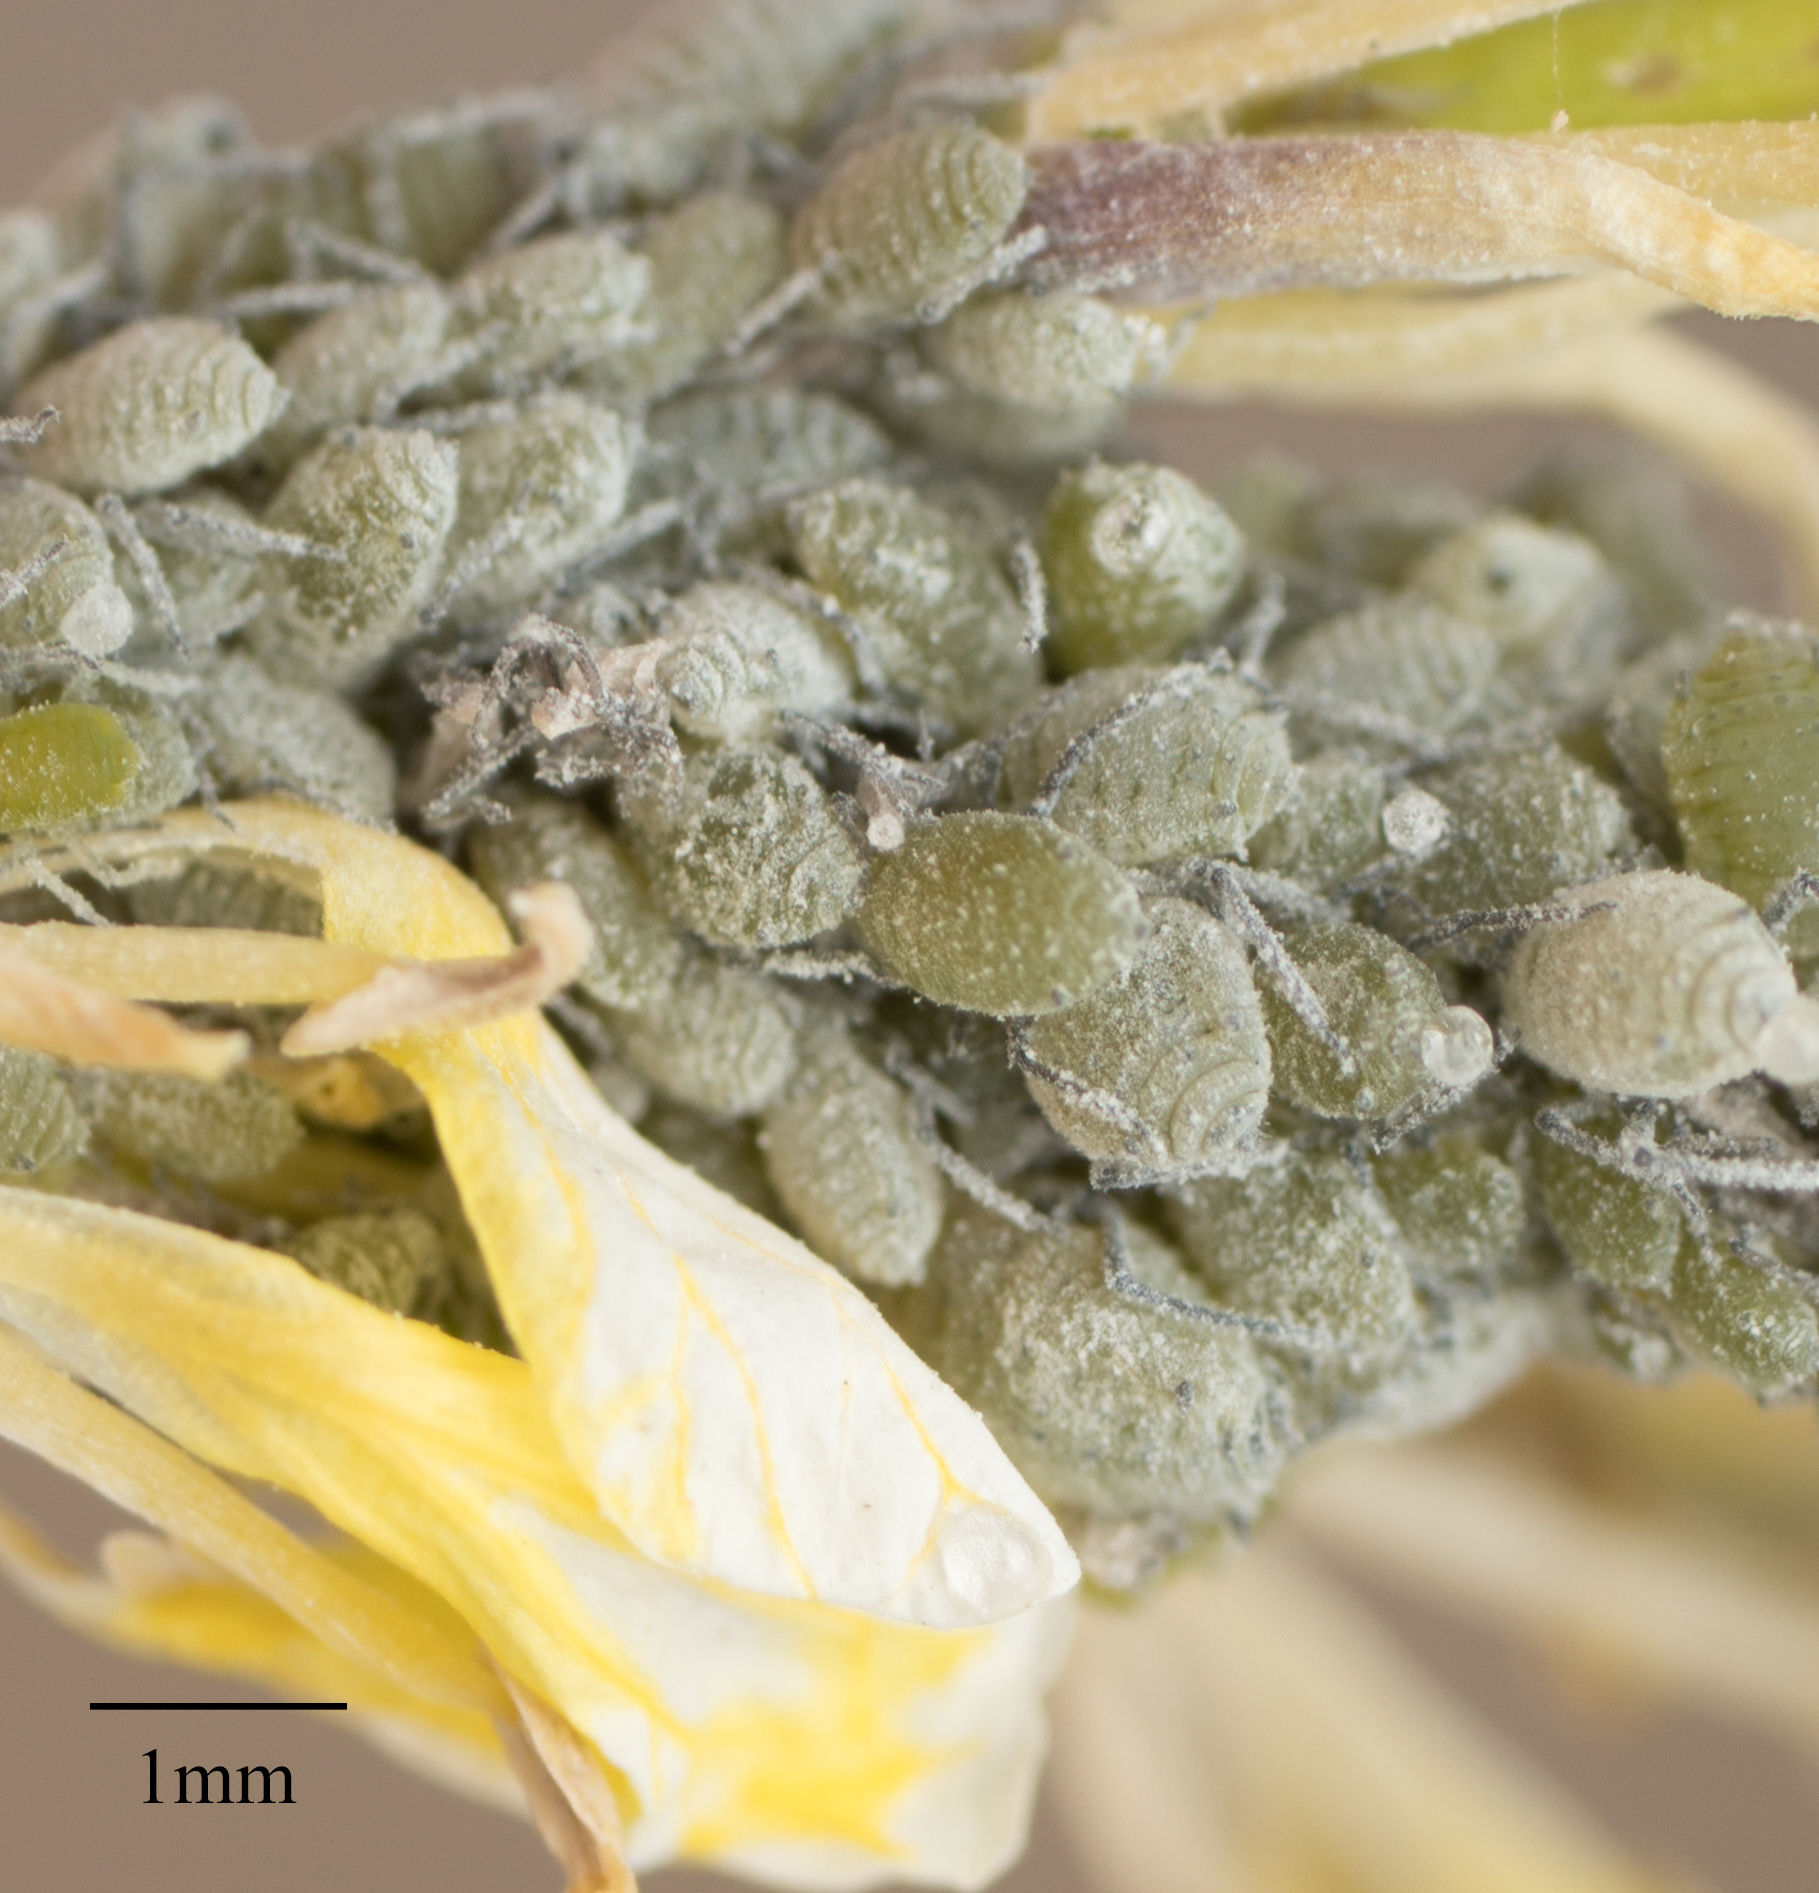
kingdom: Animalia
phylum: Arthropoda
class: Insecta
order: Hemiptera
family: Aphididae
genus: Brevicoryne
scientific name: Brevicoryne brassicae
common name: Cabbage aphid
